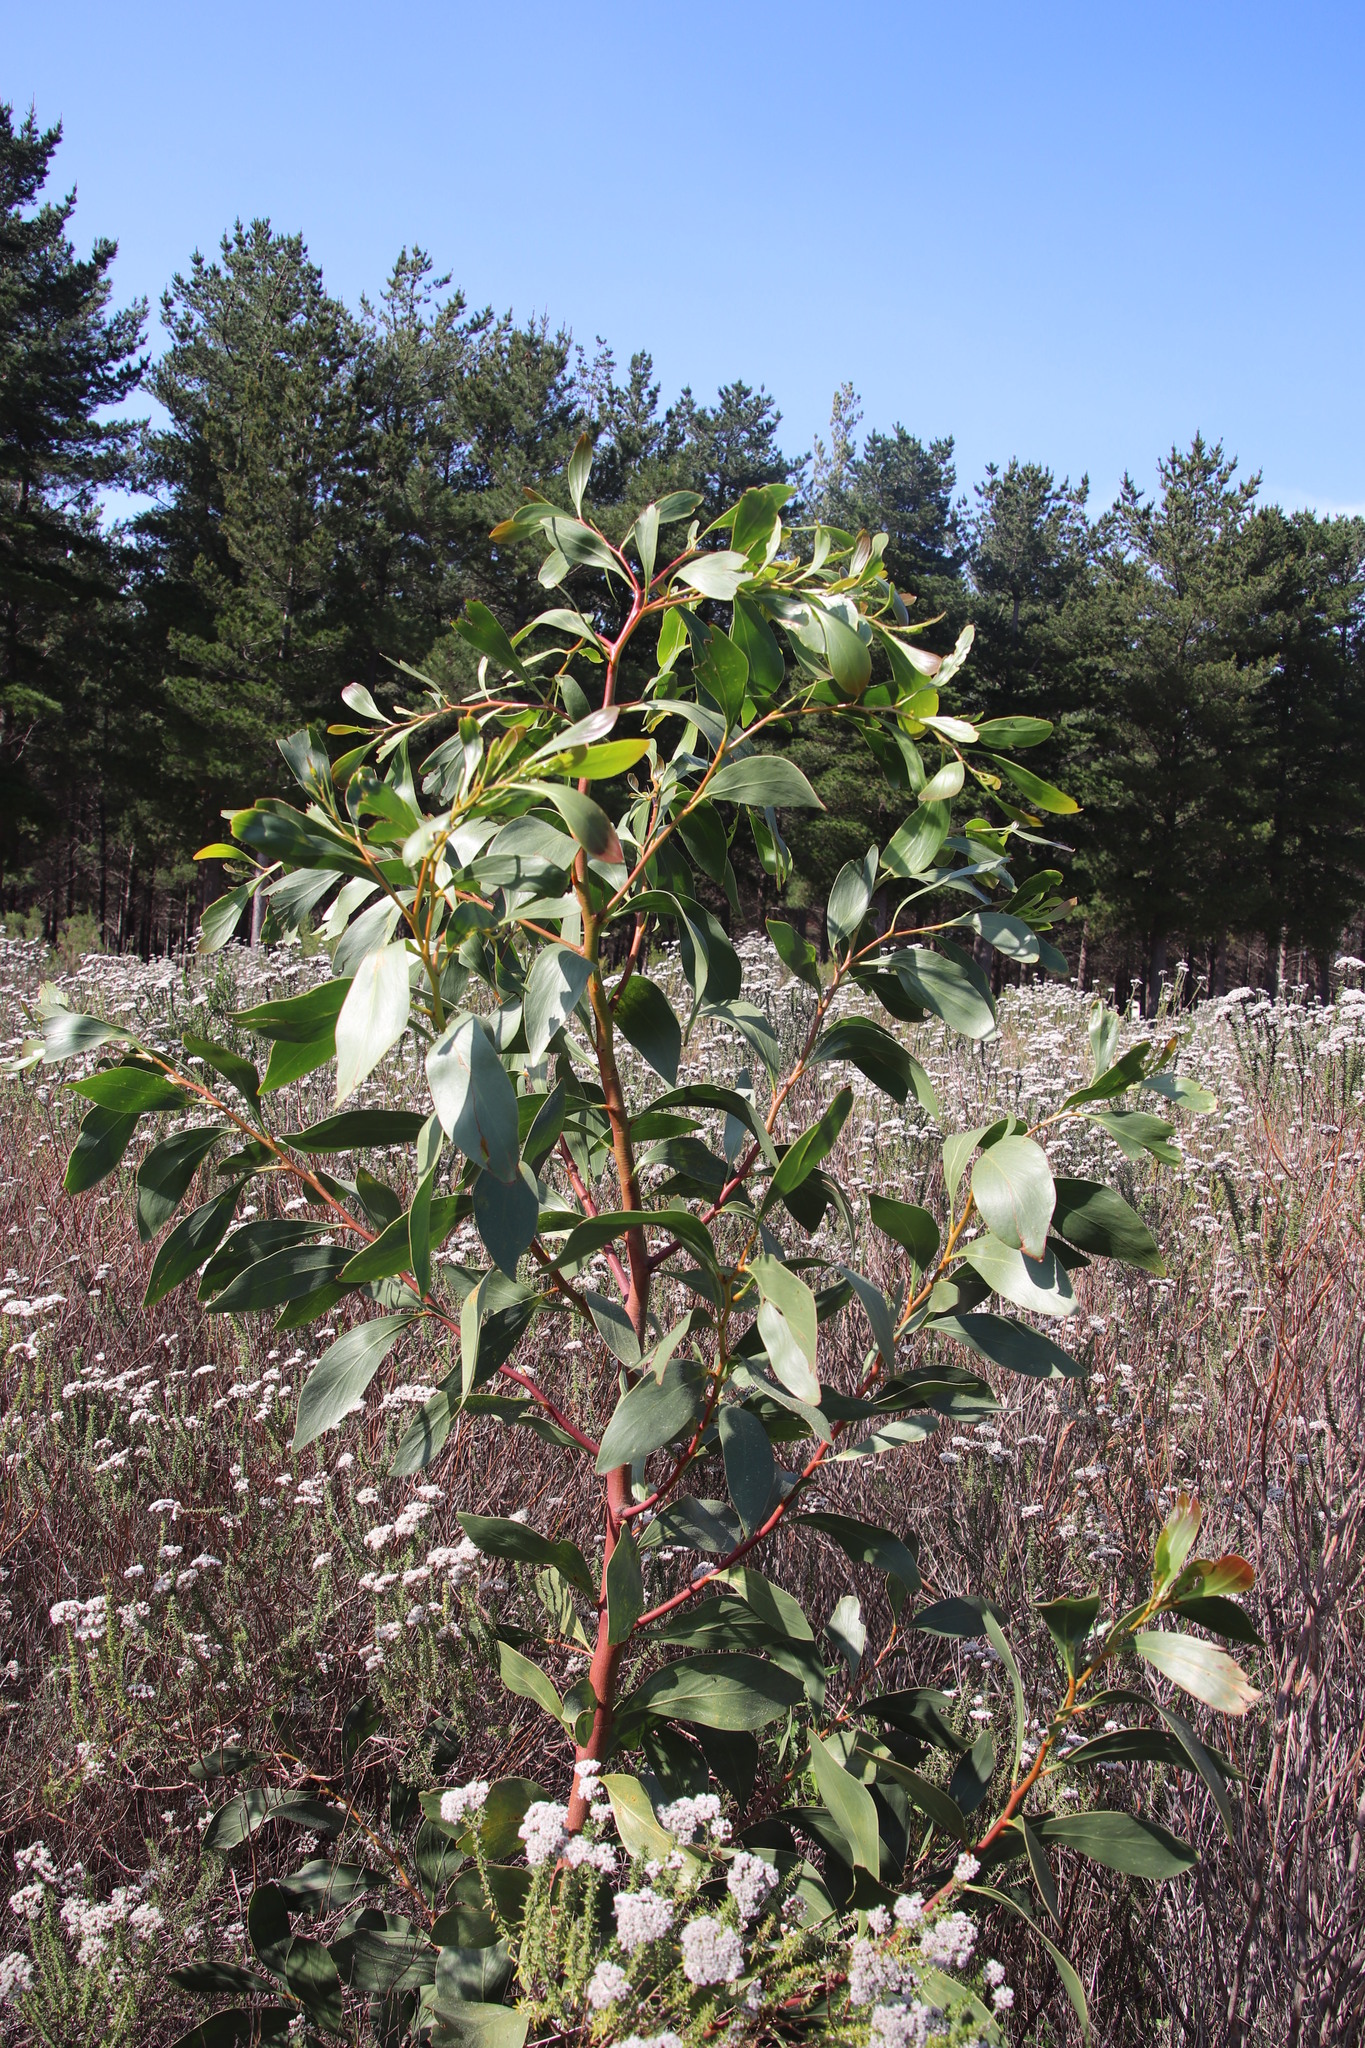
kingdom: Plantae
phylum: Tracheophyta
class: Magnoliopsida
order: Fabales
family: Fabaceae
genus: Acacia
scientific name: Acacia pycnantha
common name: Golden wattle
